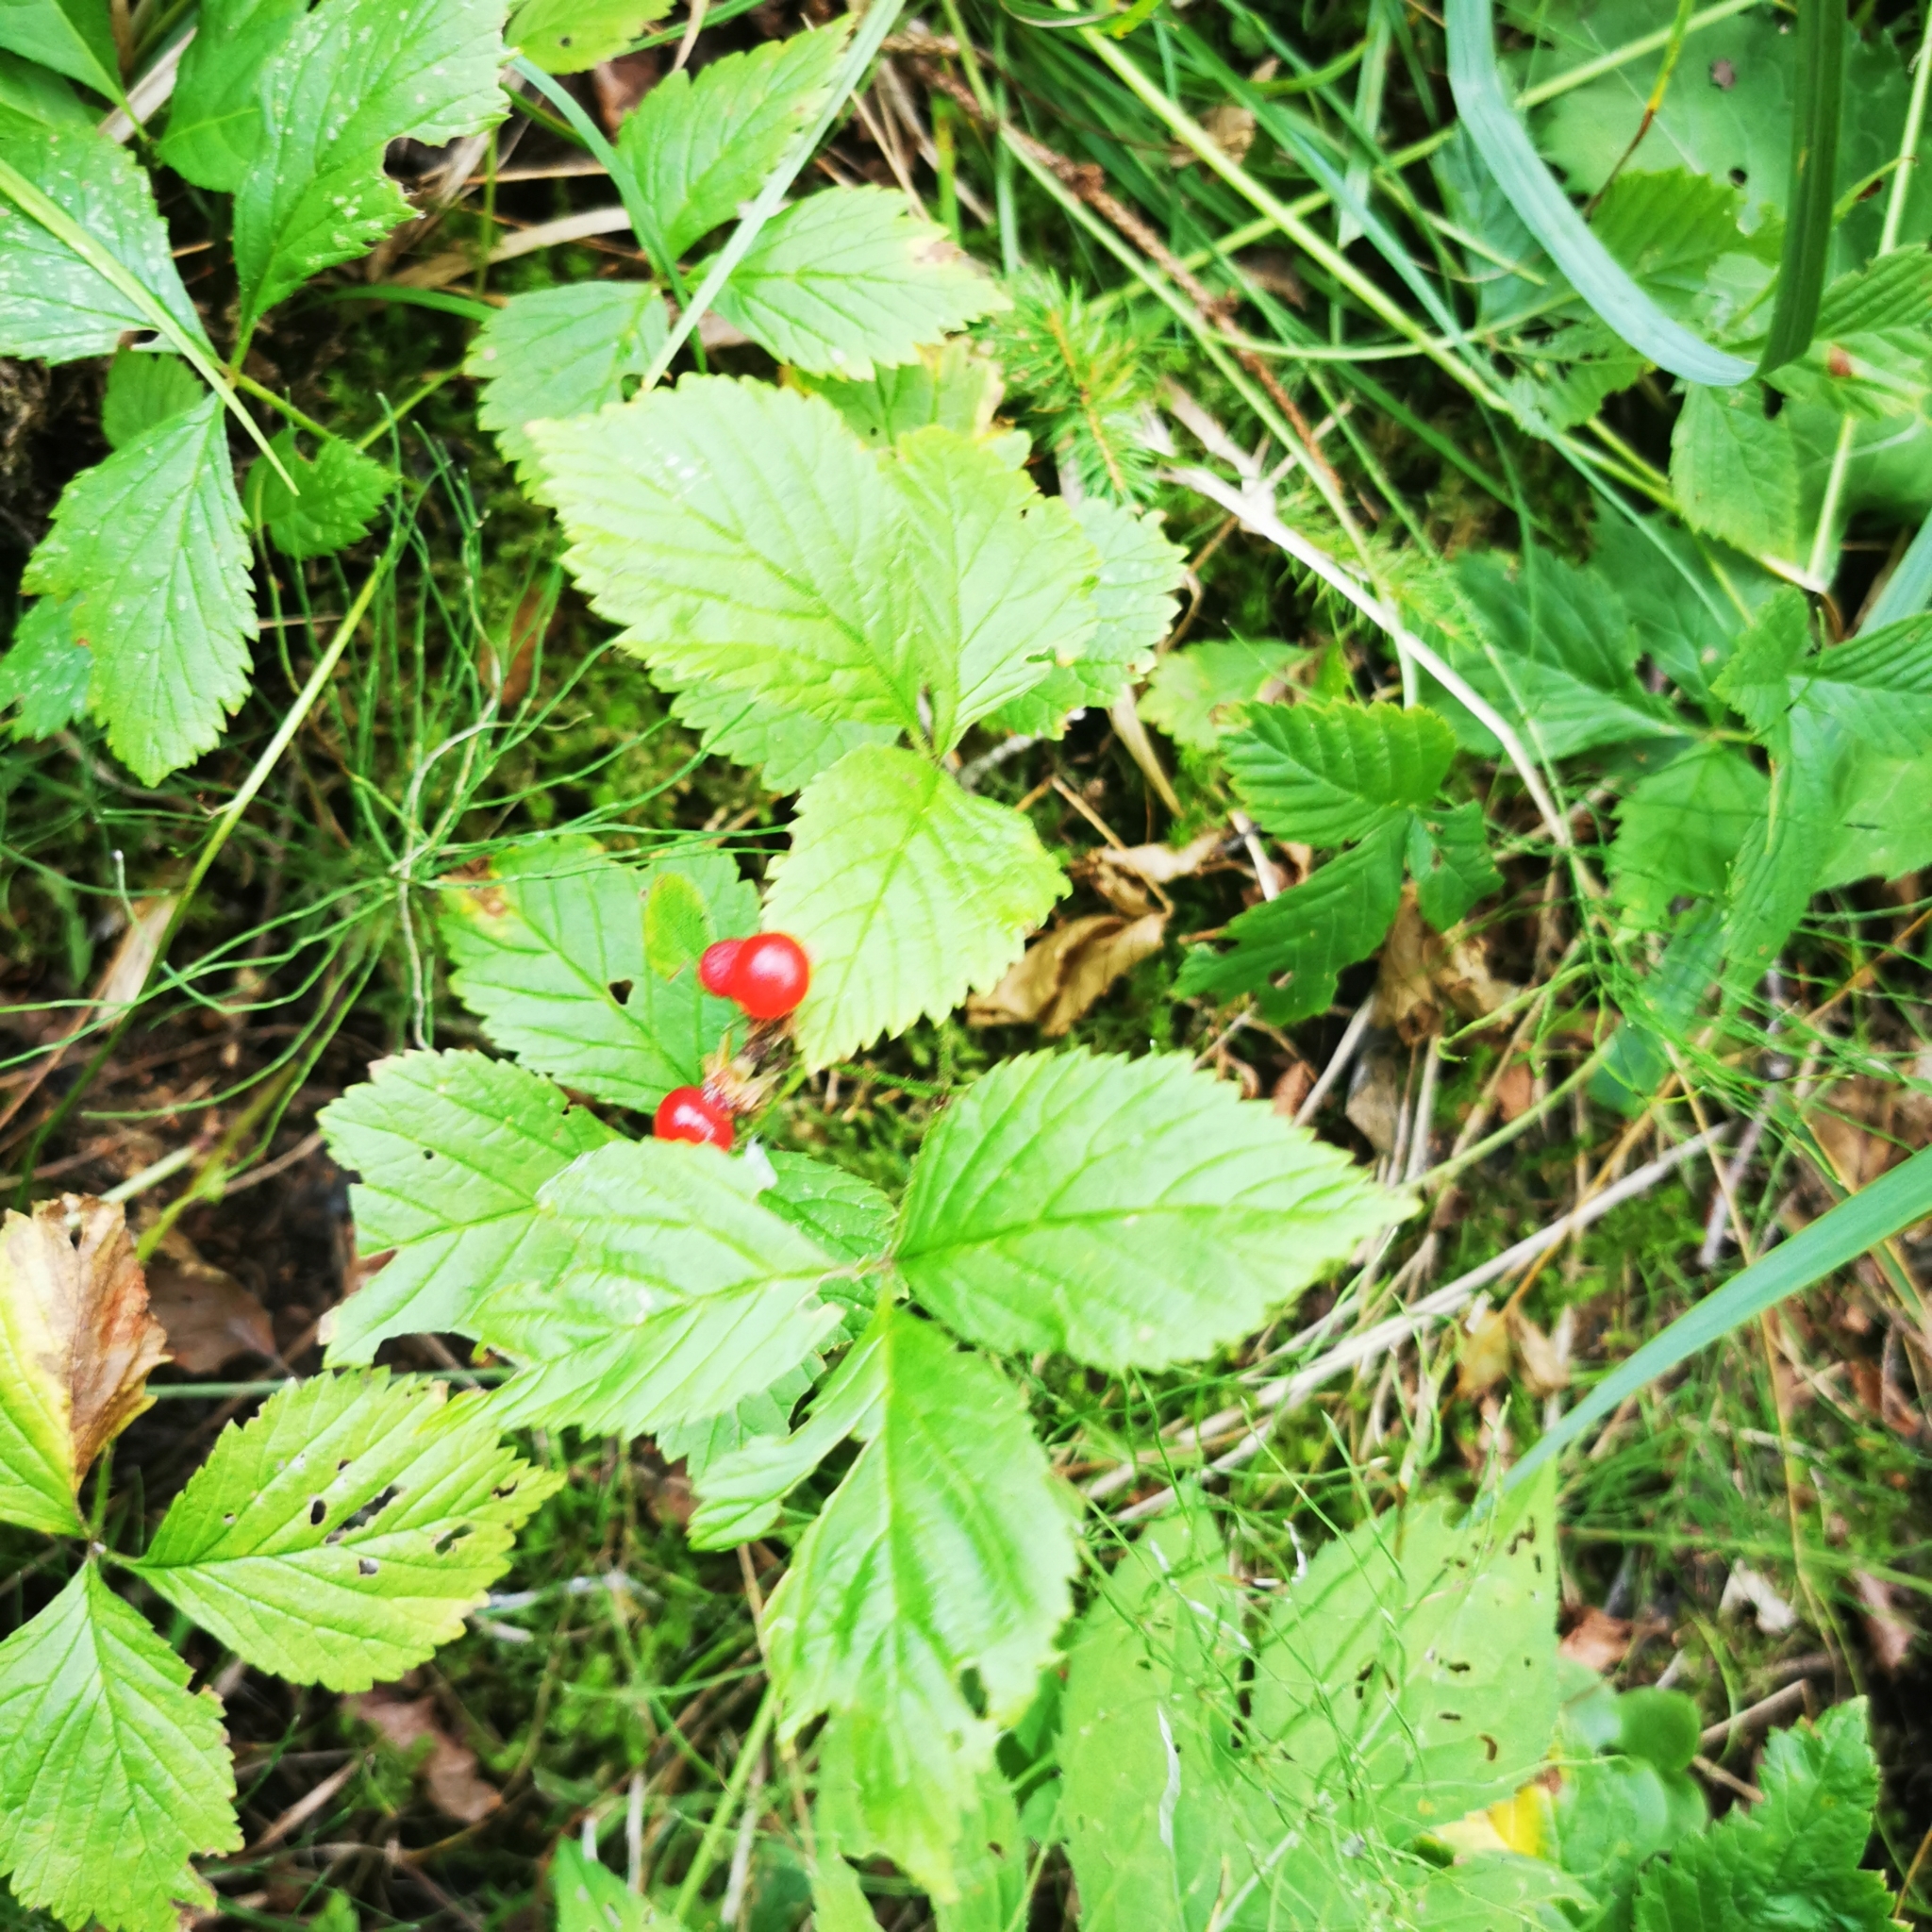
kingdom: Plantae
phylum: Tracheophyta
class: Magnoliopsida
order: Rosales
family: Rosaceae
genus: Rubus
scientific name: Rubus saxatilis
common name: Stone bramble
